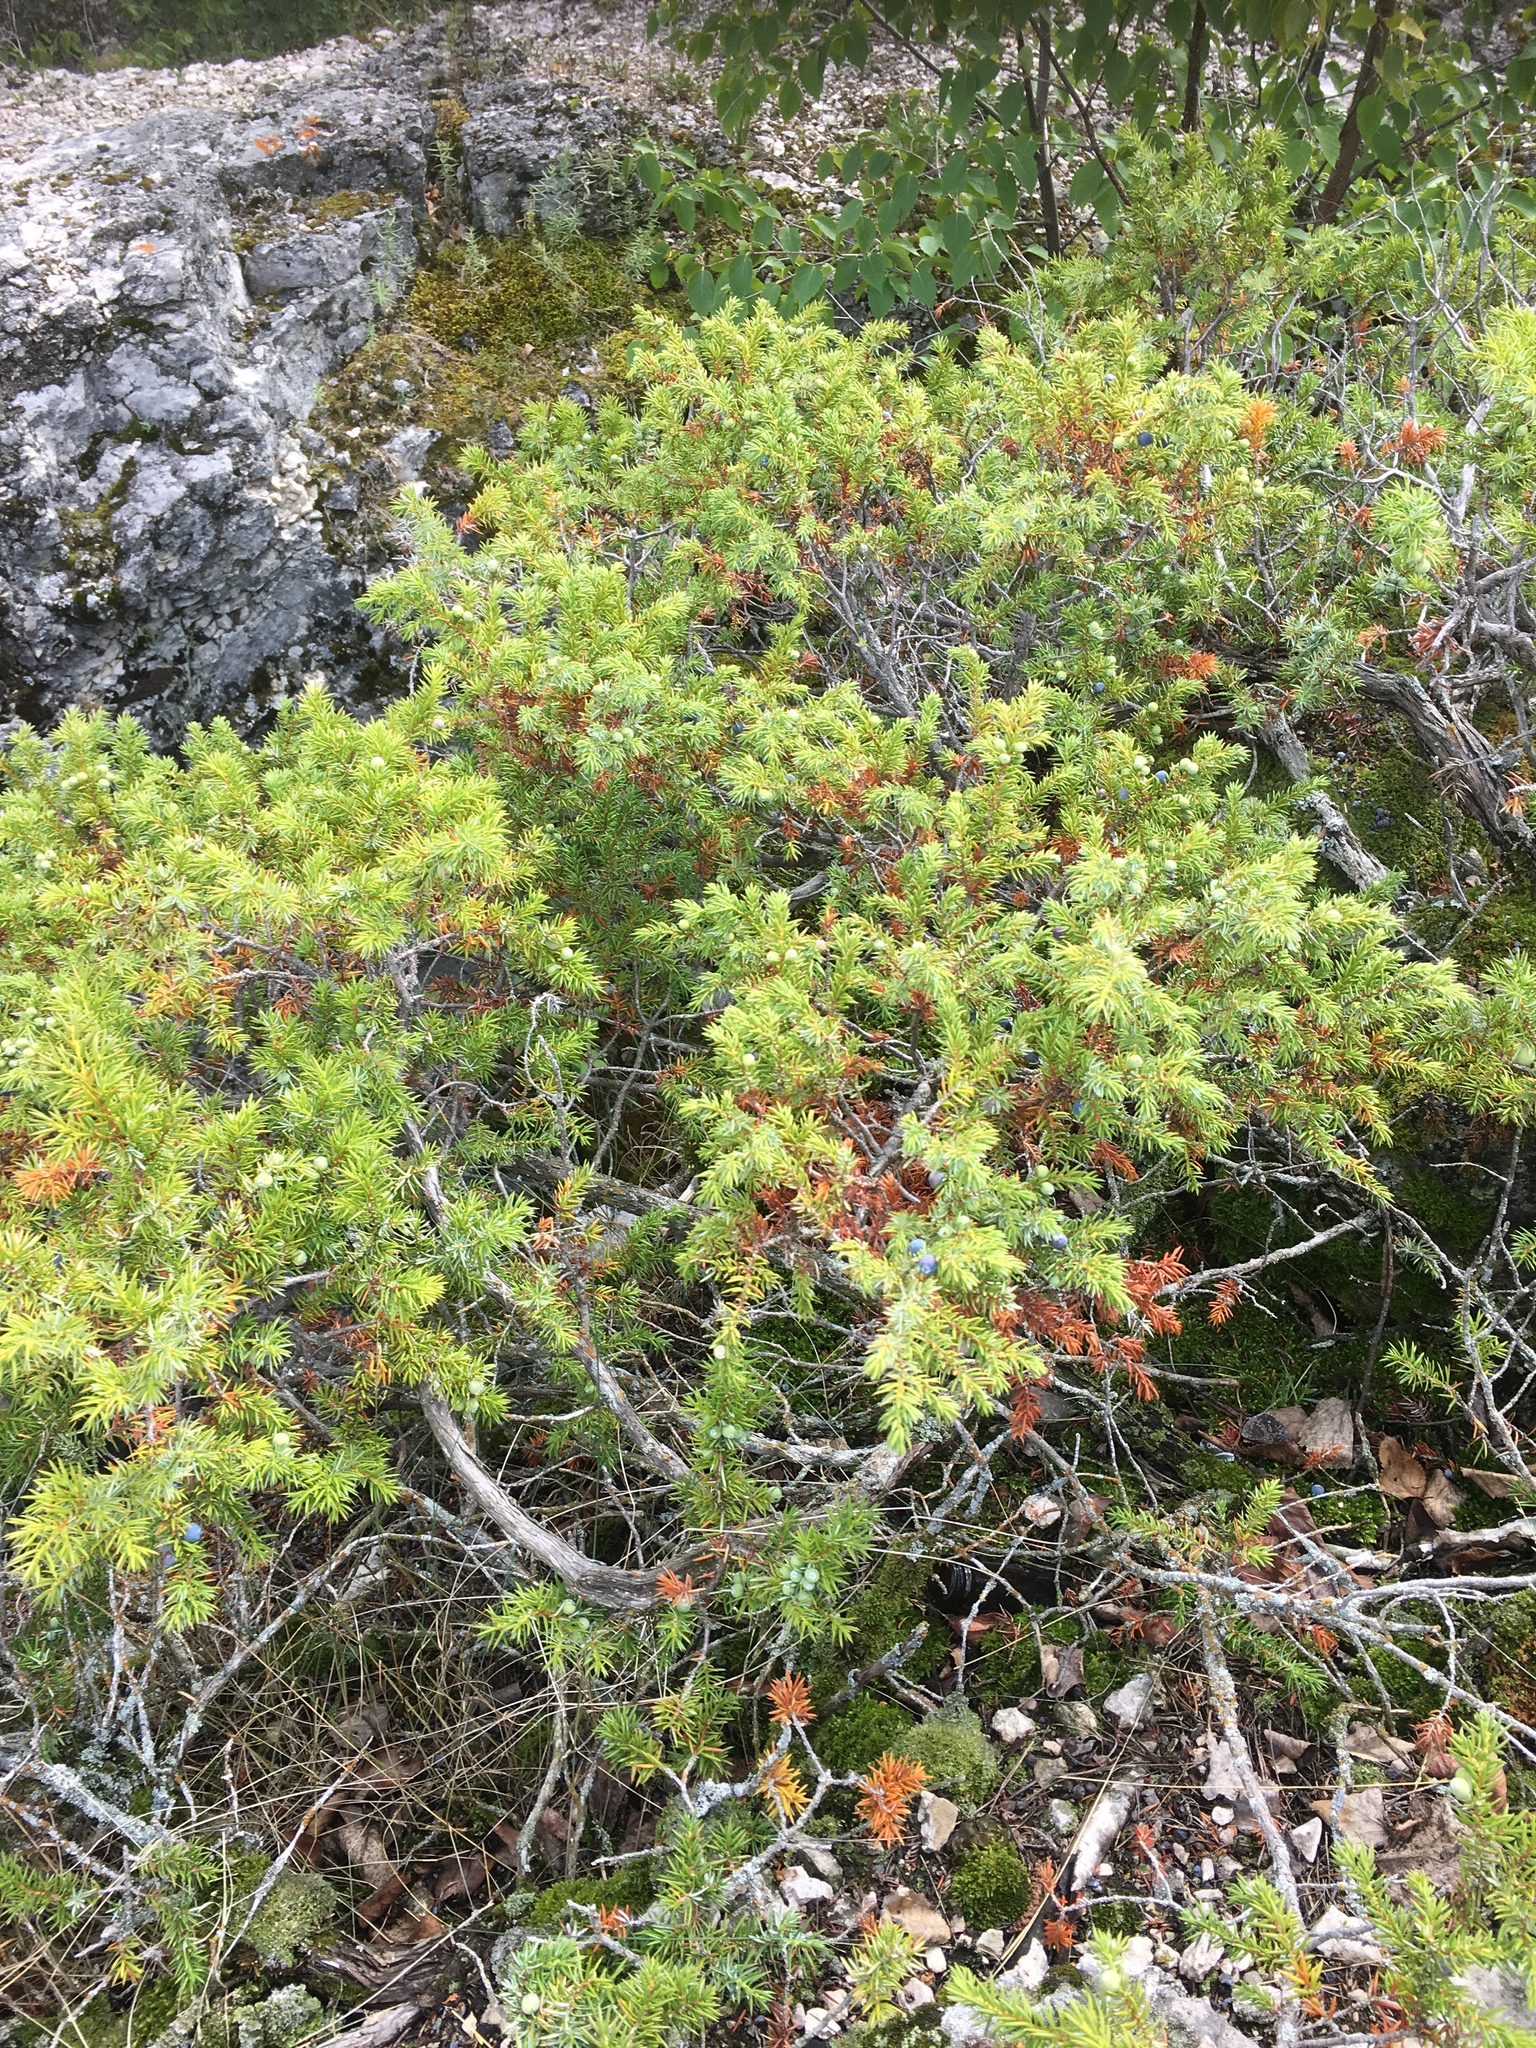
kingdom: Plantae
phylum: Tracheophyta
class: Pinopsida
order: Pinales
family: Cupressaceae
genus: Juniperus
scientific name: Juniperus communis
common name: Common juniper
